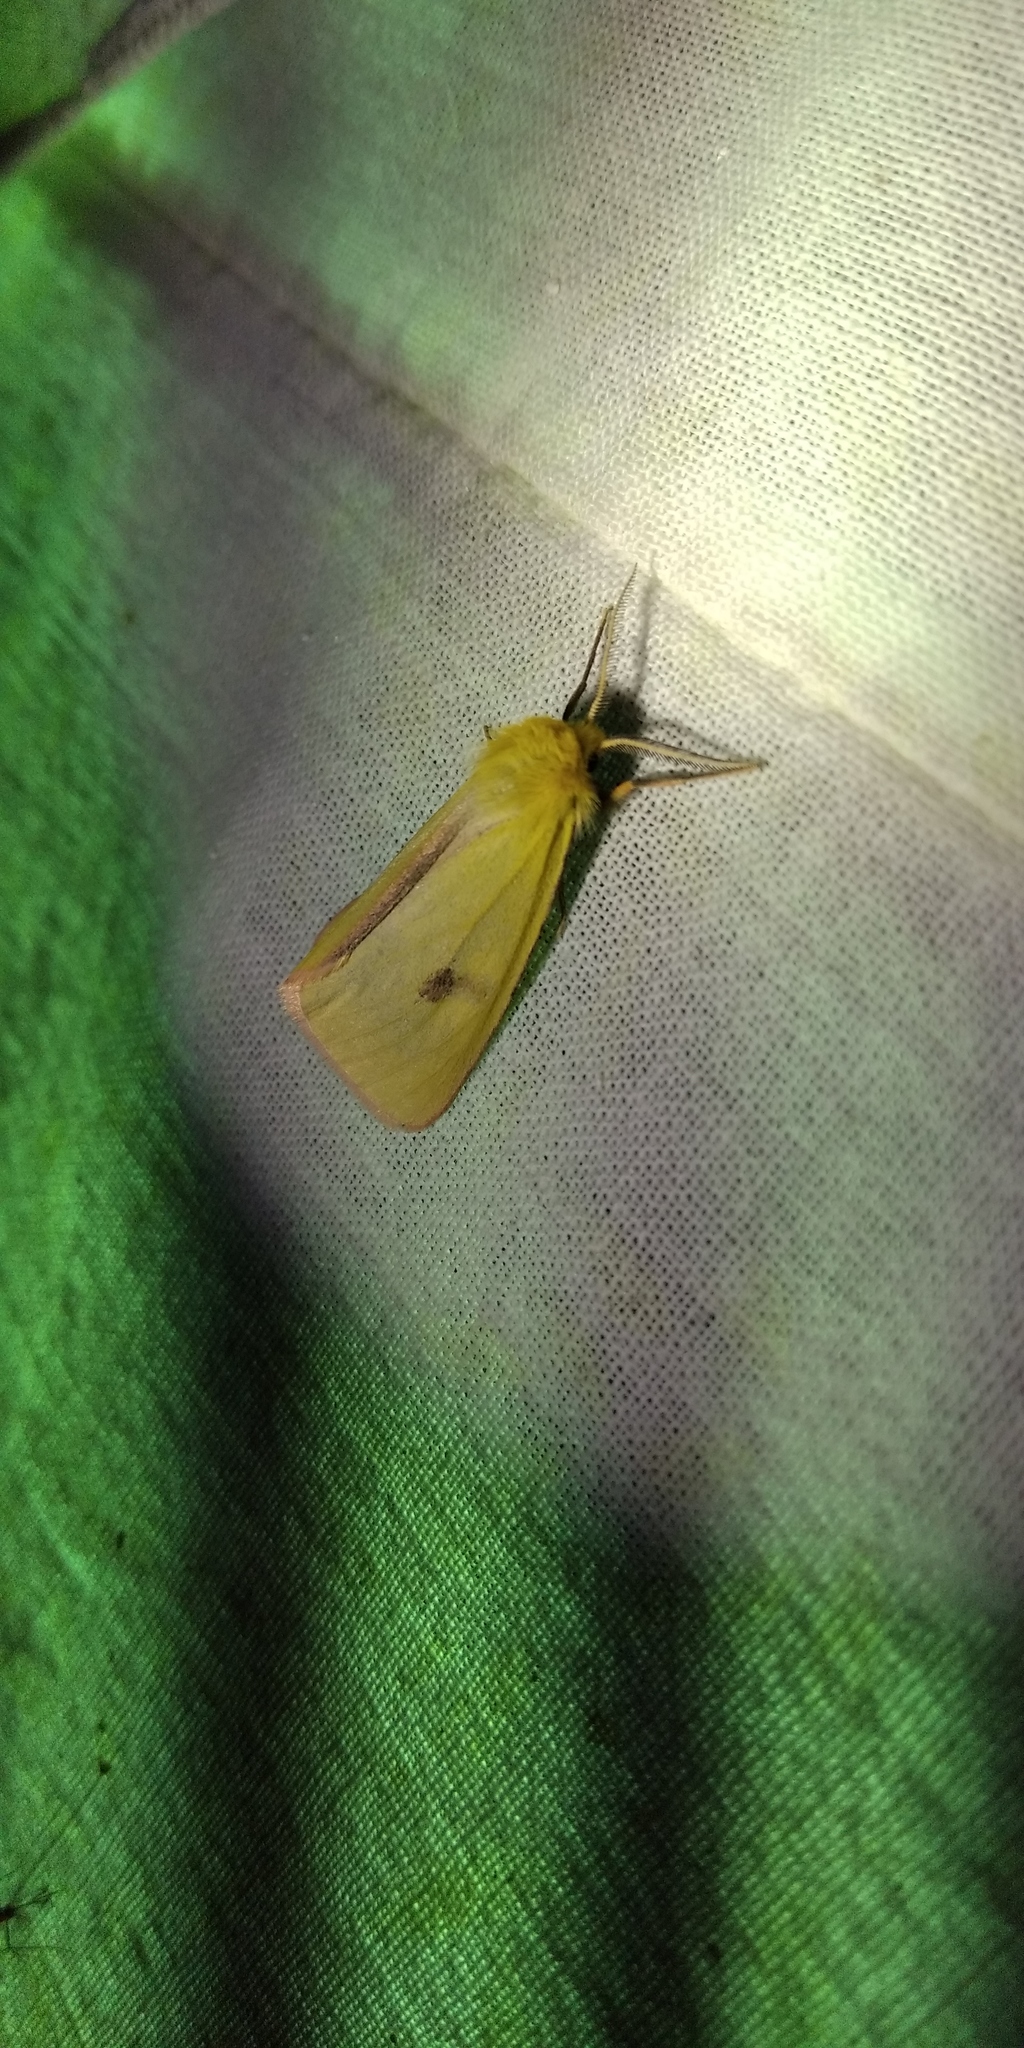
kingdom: Animalia
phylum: Arthropoda
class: Insecta
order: Lepidoptera
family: Erebidae
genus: Diacrisia
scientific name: Diacrisia sannio
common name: Clouded buff
